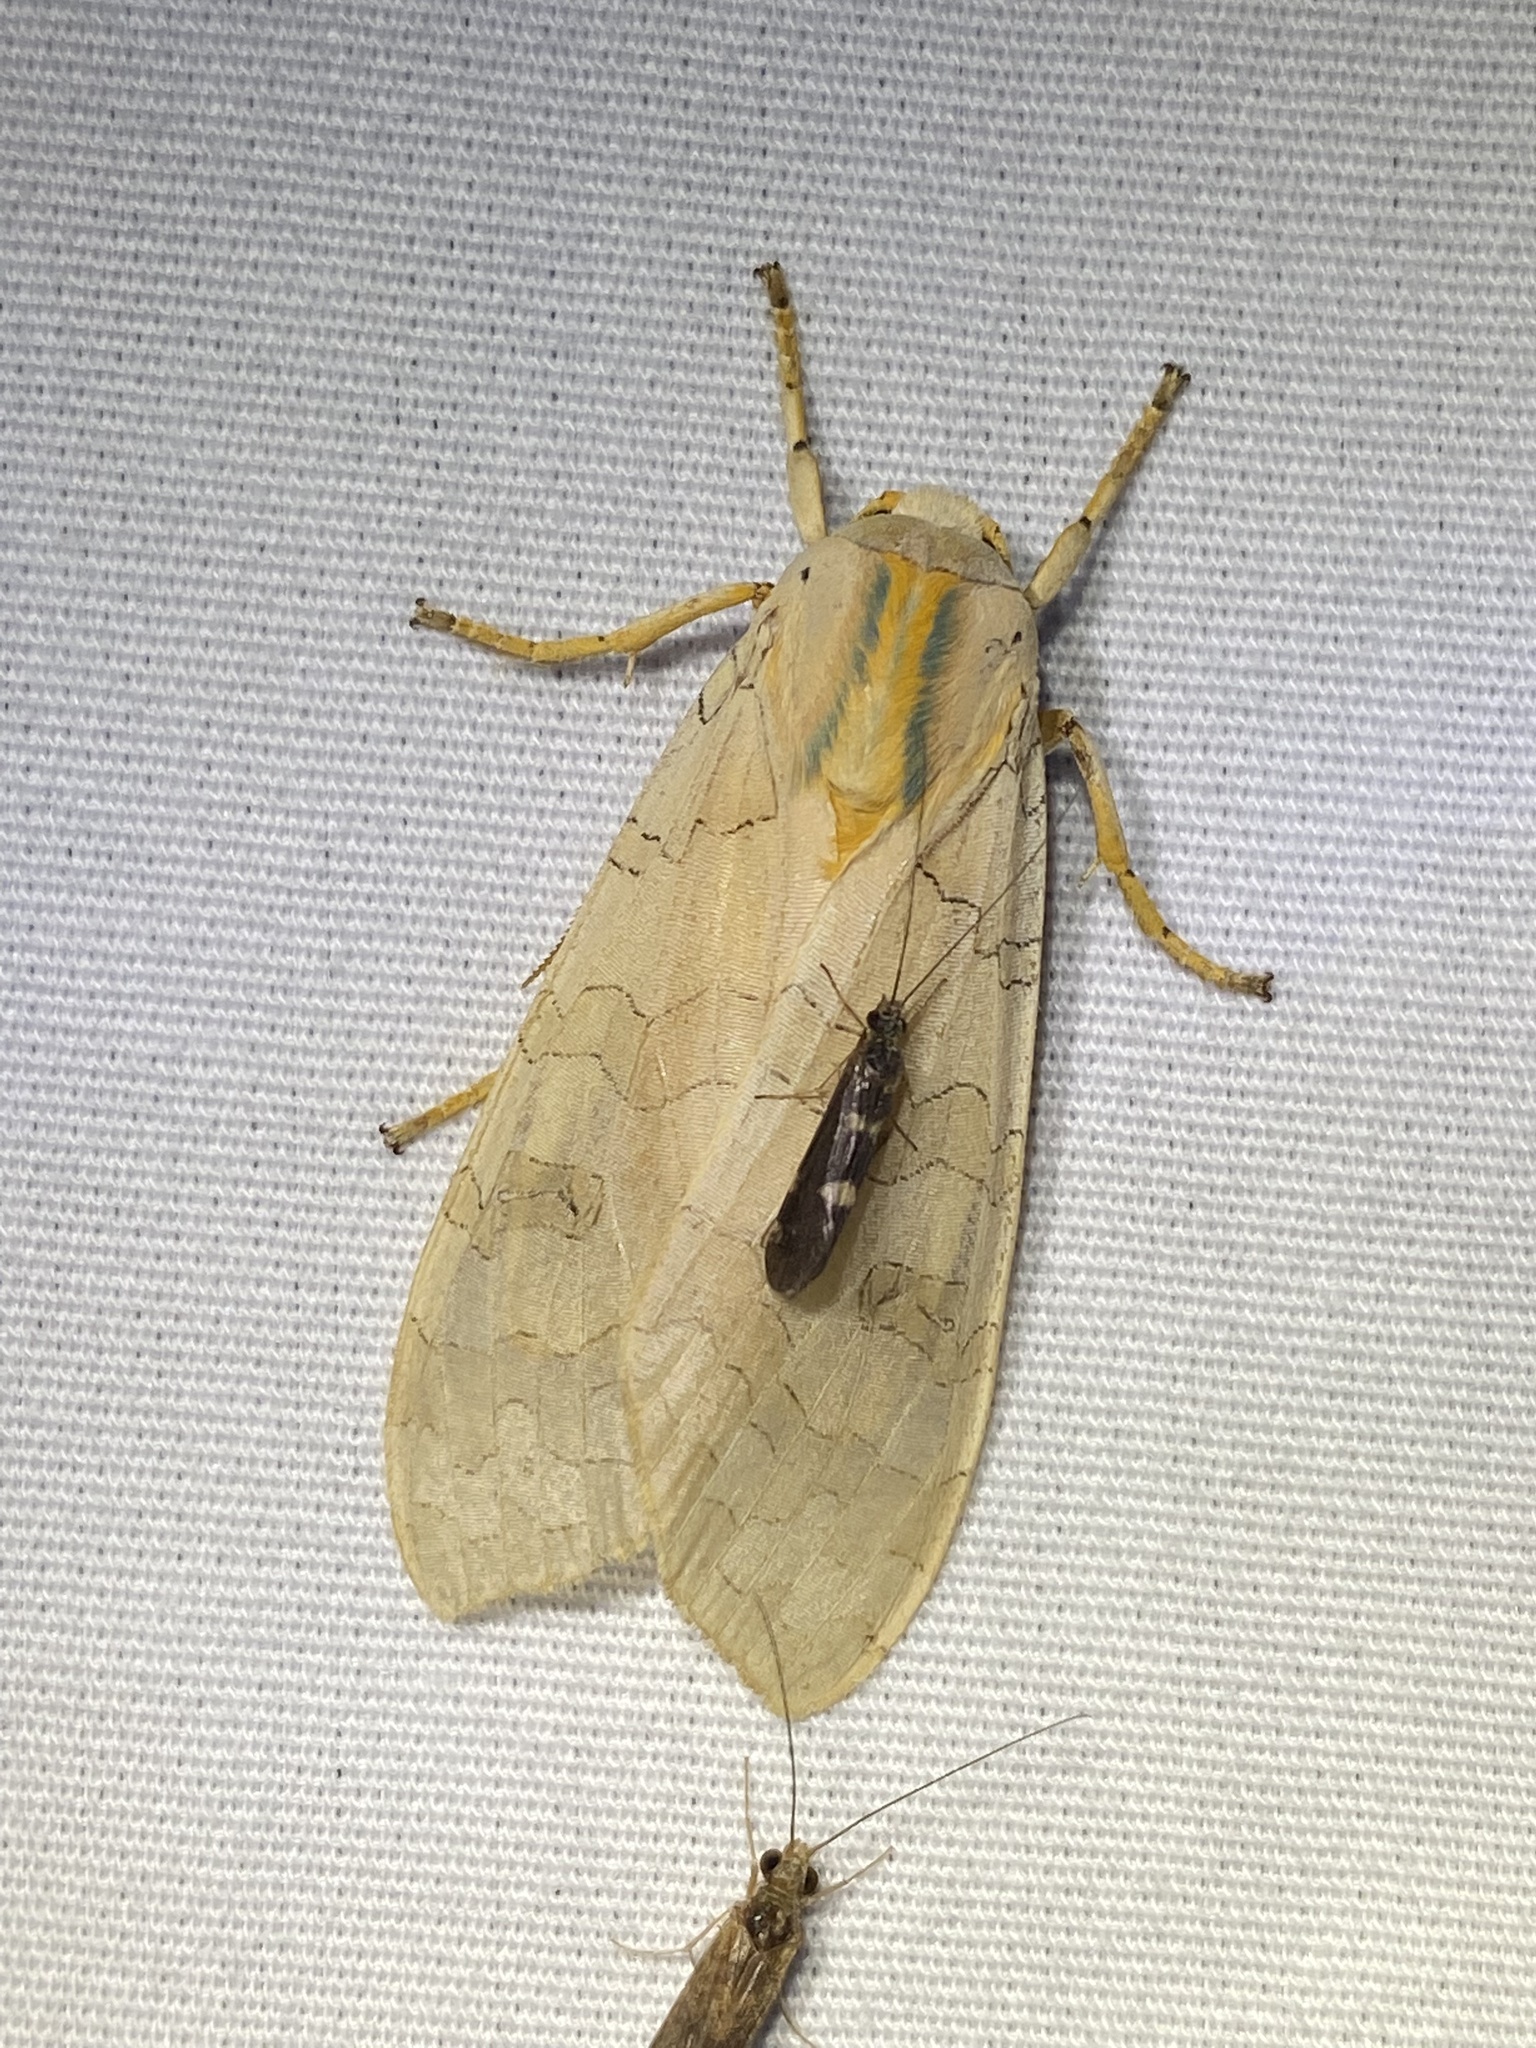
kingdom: Animalia
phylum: Arthropoda
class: Insecta
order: Lepidoptera
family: Erebidae
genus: Halysidota
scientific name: Halysidota
